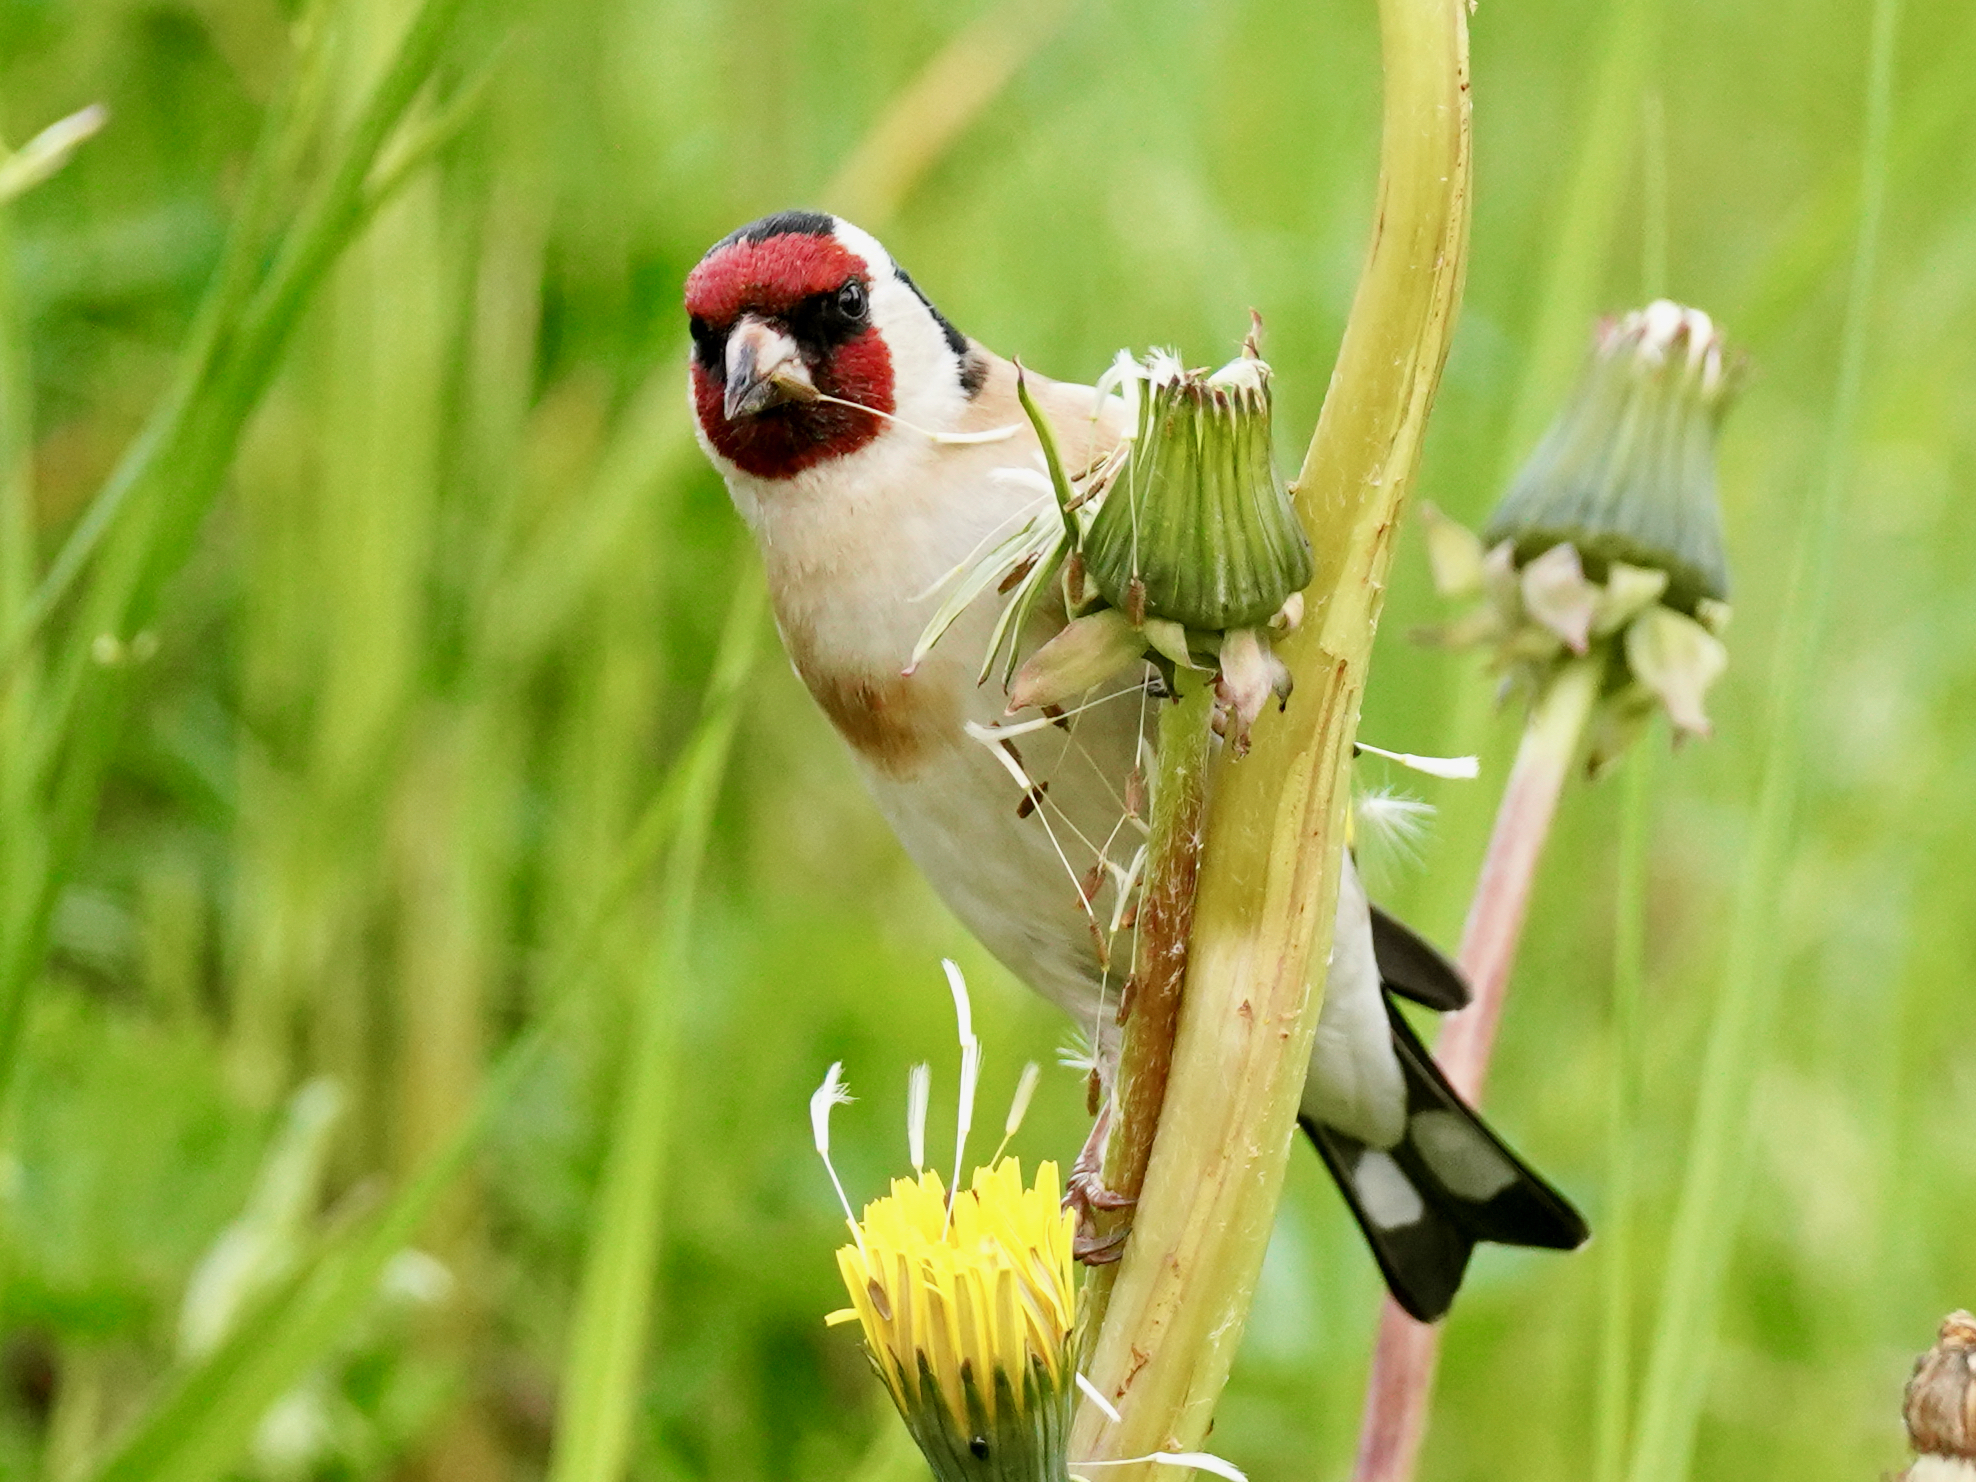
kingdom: Animalia
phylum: Chordata
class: Aves
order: Passeriformes
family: Fringillidae
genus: Carduelis
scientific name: Carduelis carduelis
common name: European goldfinch
